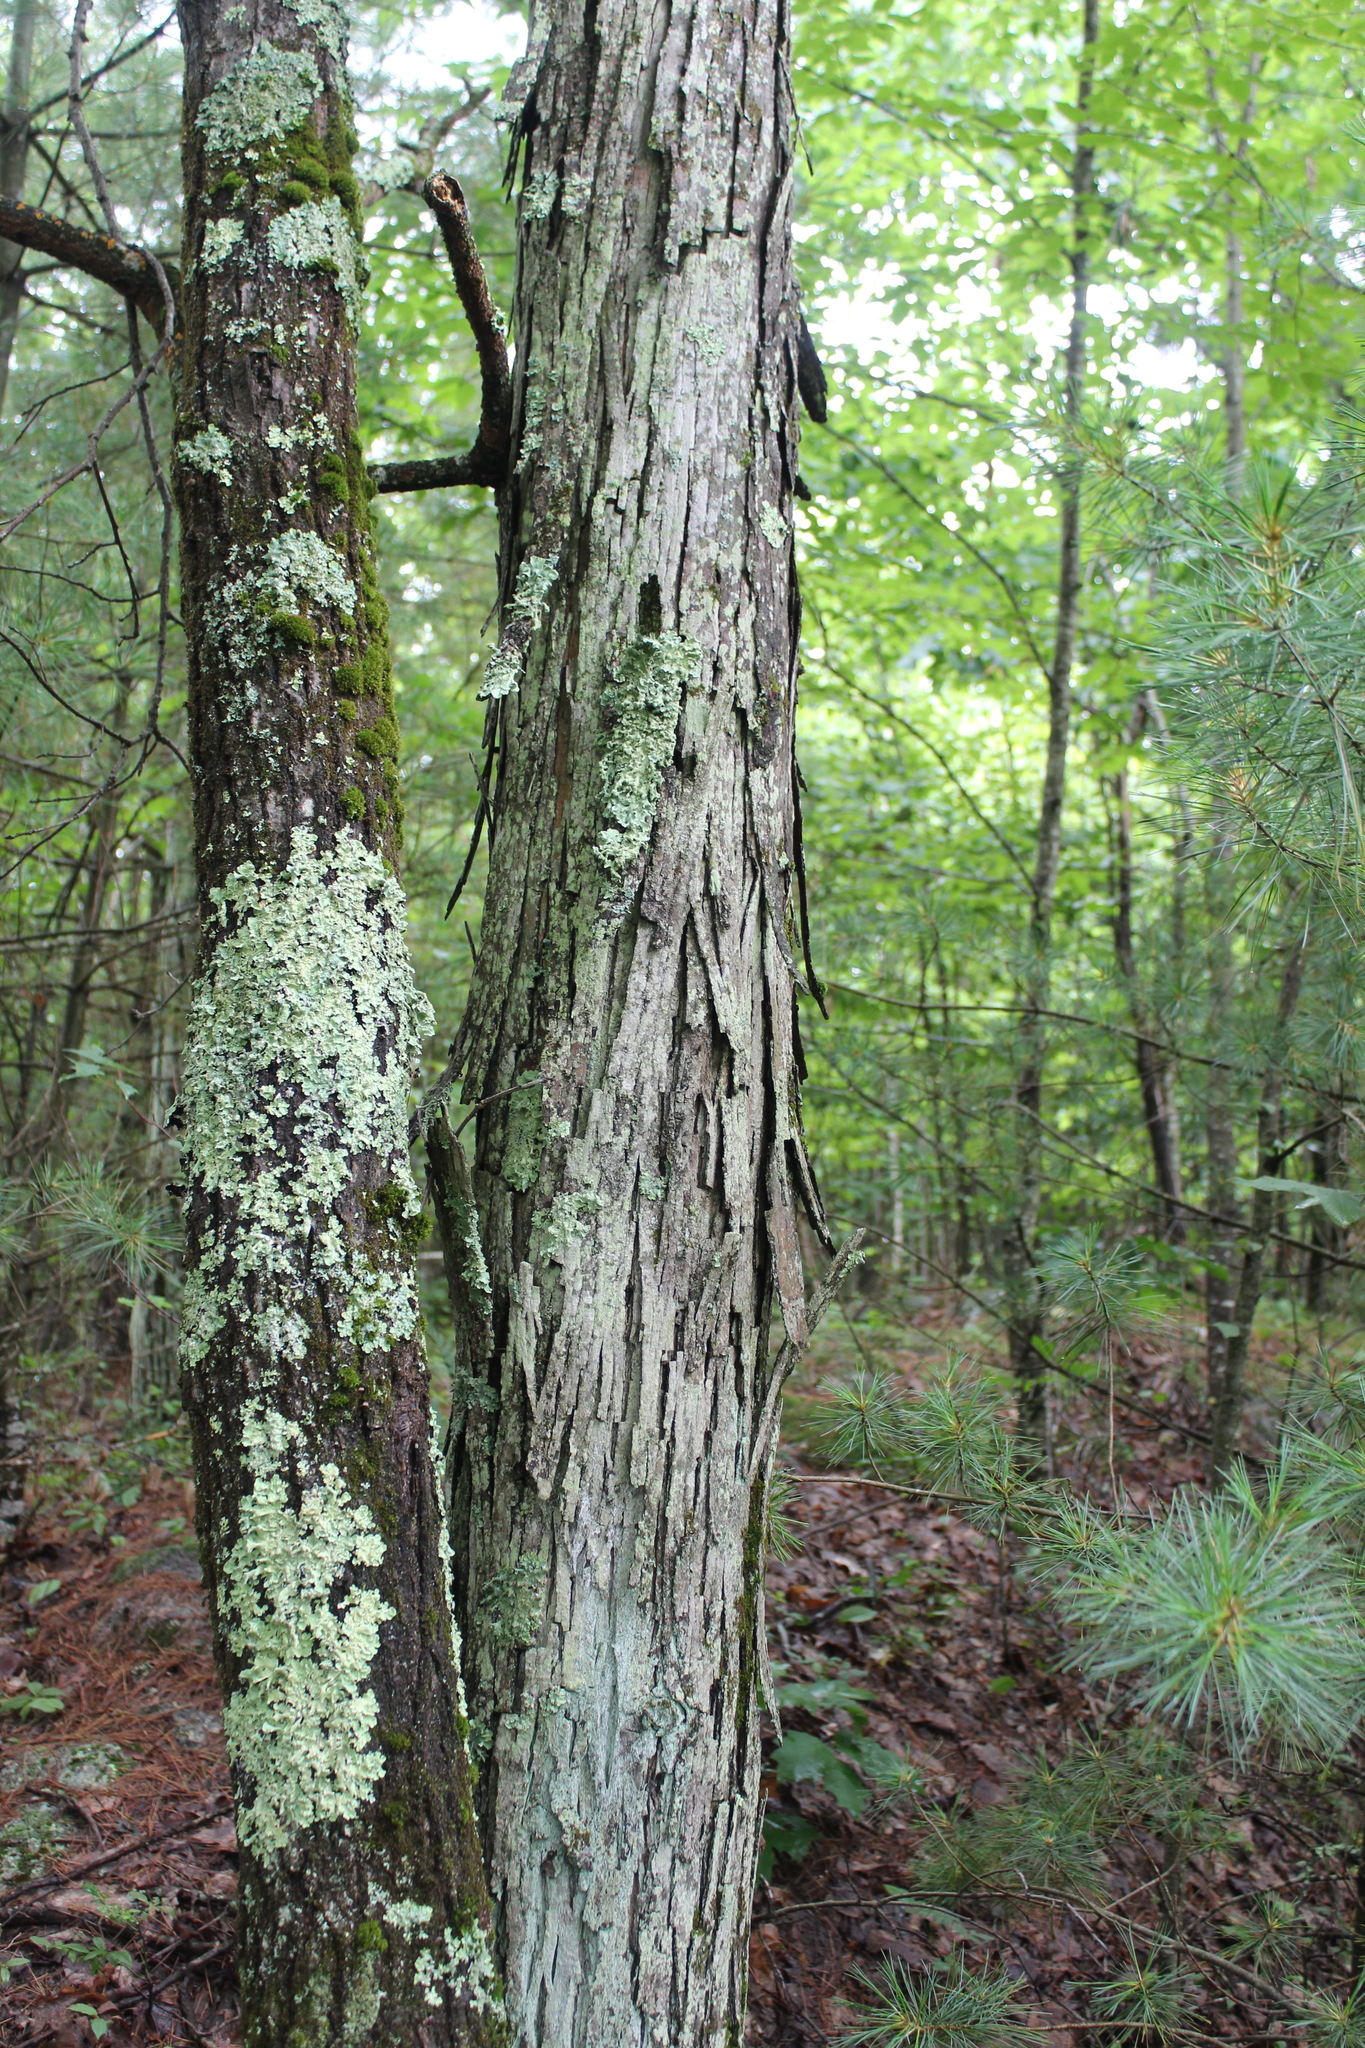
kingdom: Plantae
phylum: Tracheophyta
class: Magnoliopsida
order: Fagales
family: Juglandaceae
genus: Carya
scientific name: Carya ovata
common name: Shagbark hickory
